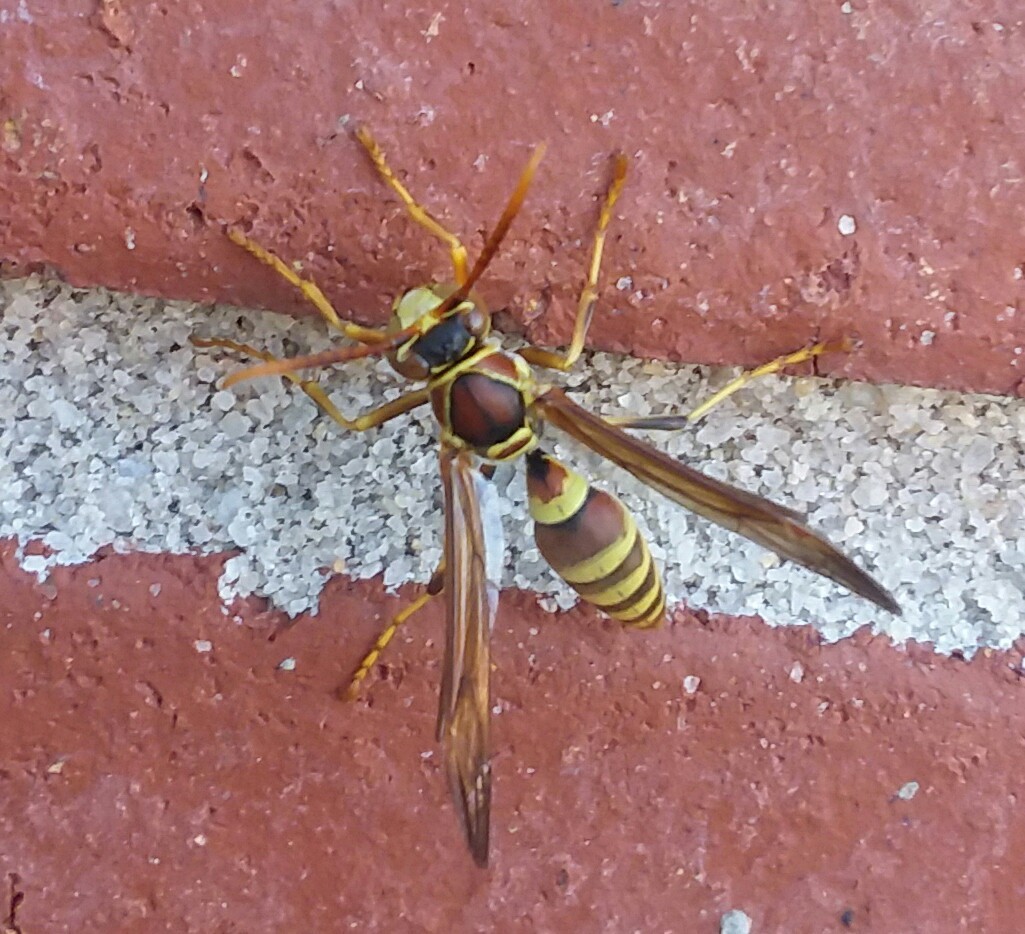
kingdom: Animalia
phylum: Arthropoda
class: Insecta
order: Hymenoptera
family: Eumenidae
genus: Polistes
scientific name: Polistes exclamans
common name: Paper wasp
